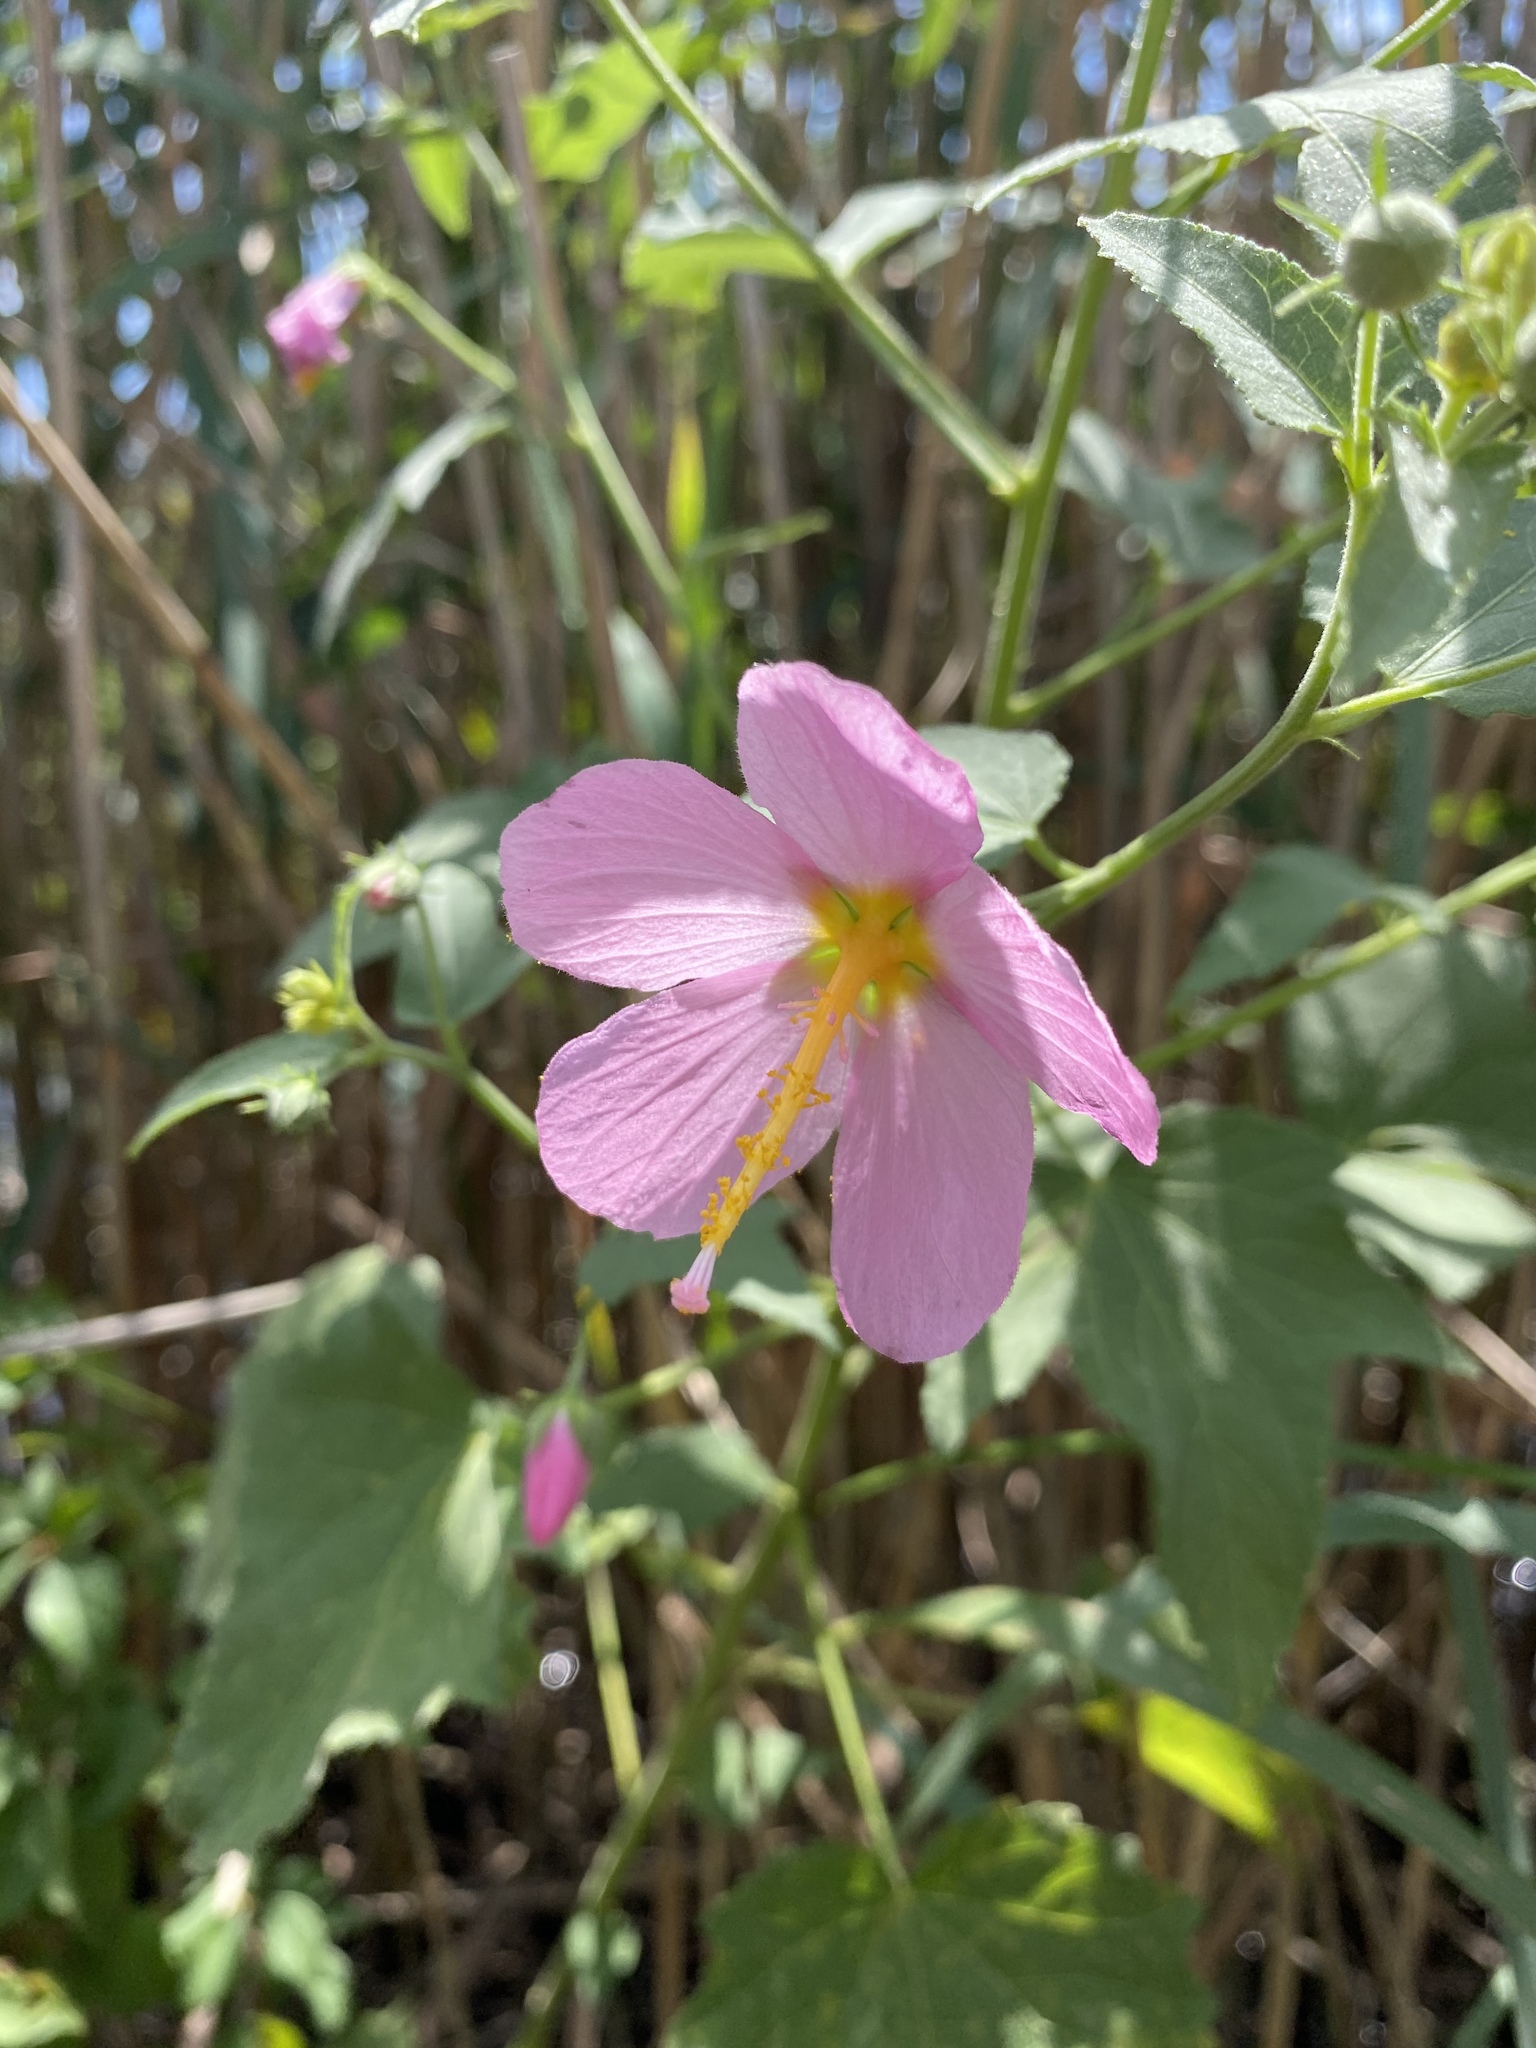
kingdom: Plantae
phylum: Tracheophyta
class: Magnoliopsida
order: Malvales
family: Malvaceae
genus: Kosteletzkya
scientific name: Kosteletzkya pentacarpos
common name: Virginia saltmarsh mallow
